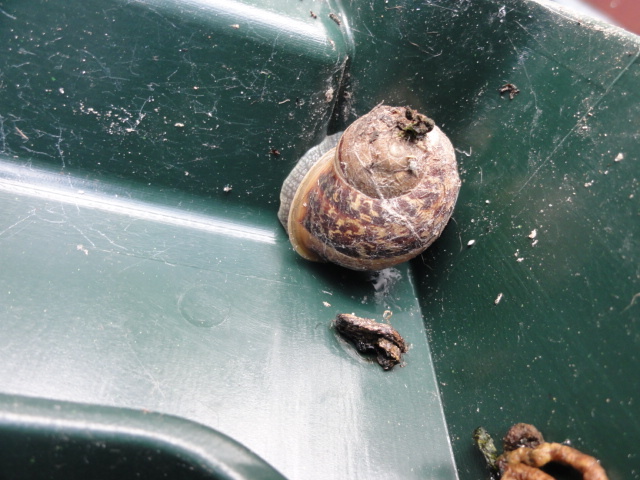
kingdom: Animalia
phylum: Mollusca
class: Gastropoda
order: Stylommatophora
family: Helicidae
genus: Cornu
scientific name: Cornu aspersum
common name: Brown garden snail
